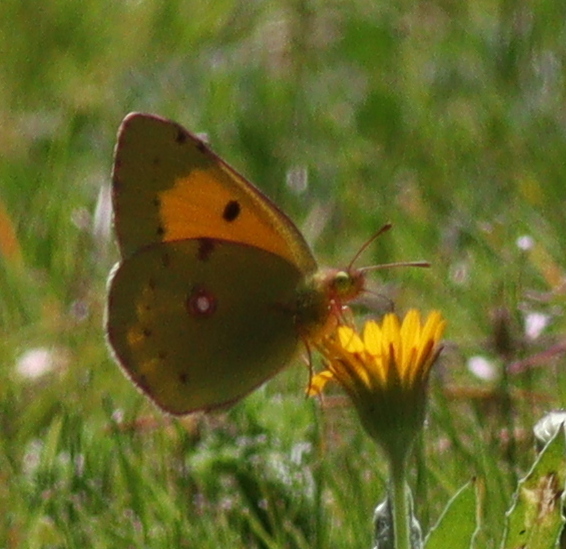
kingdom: Animalia
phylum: Arthropoda
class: Insecta
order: Lepidoptera
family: Pieridae
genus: Colias
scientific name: Colias croceus
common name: Clouded yellow
